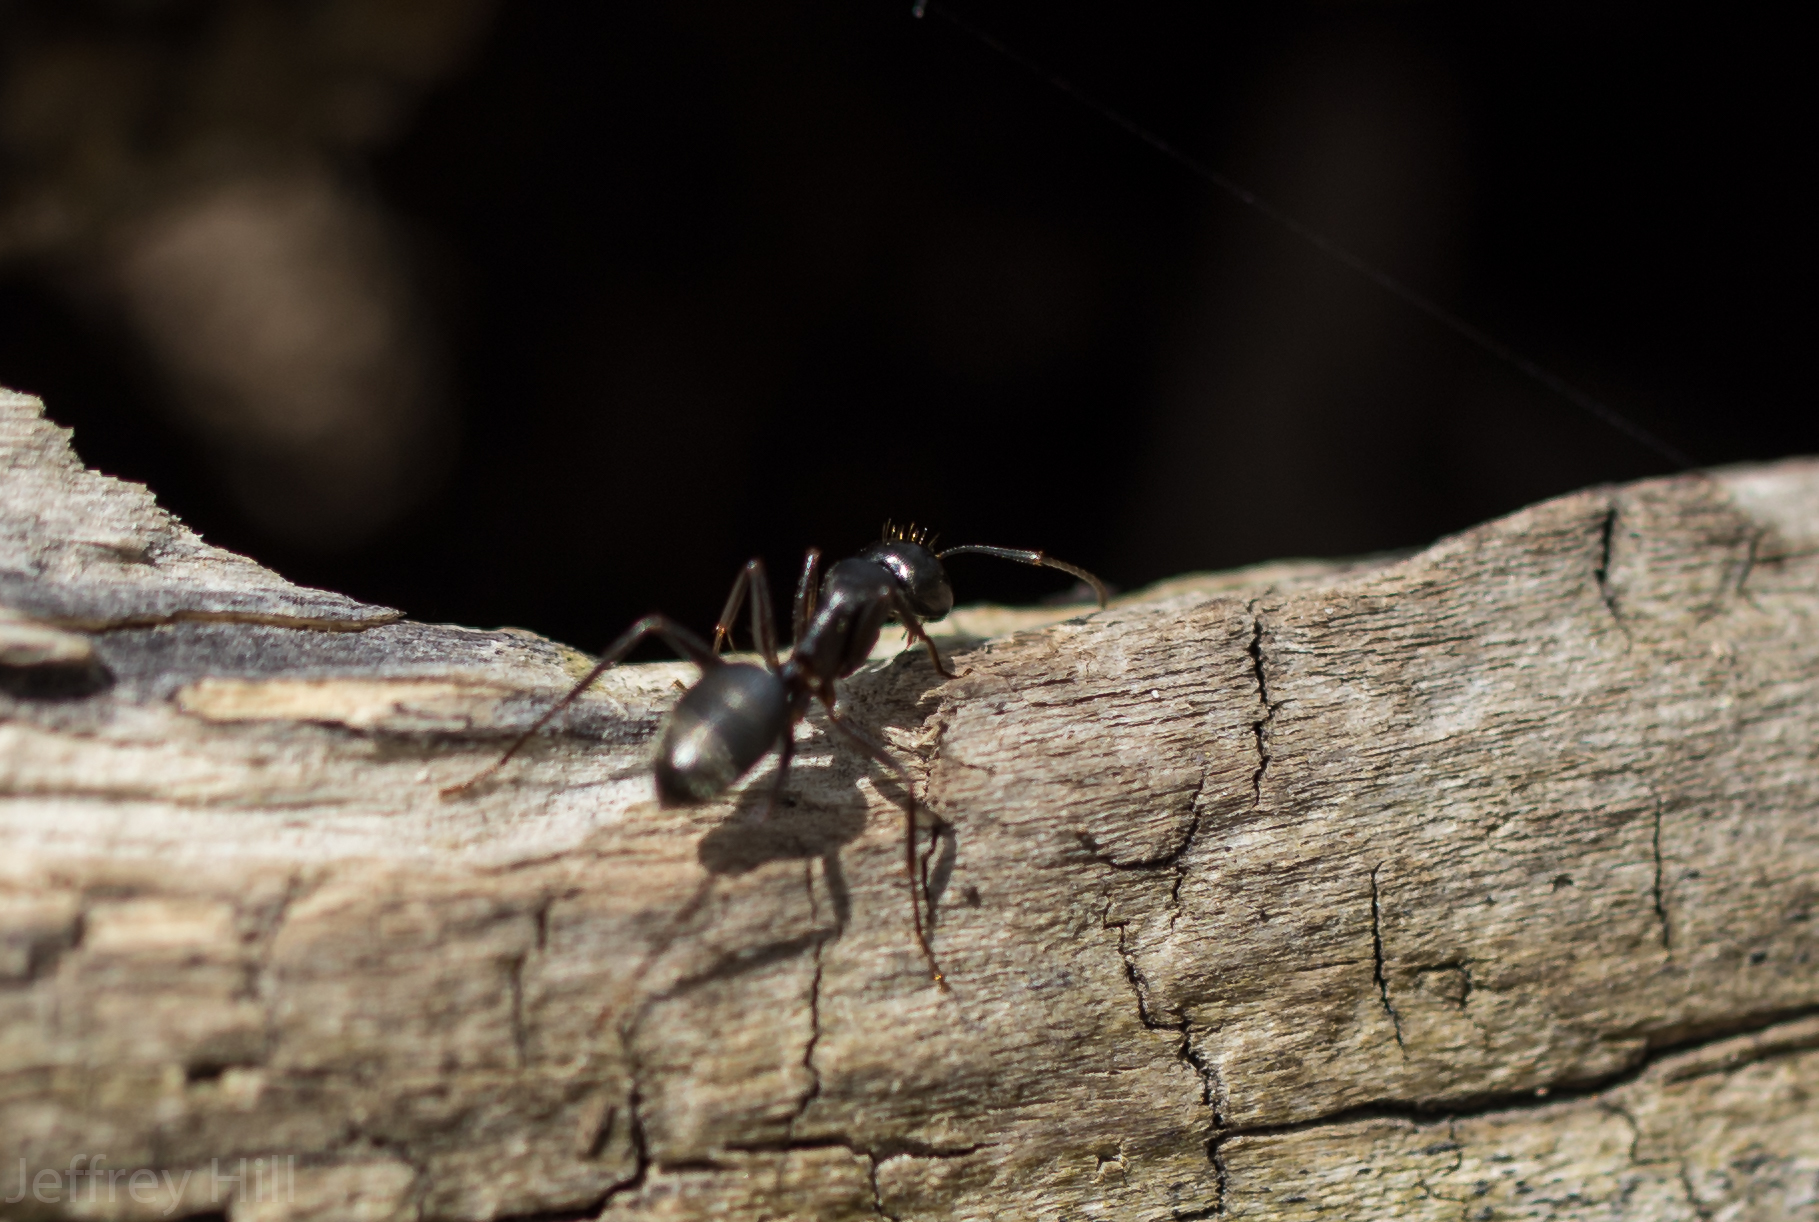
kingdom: Animalia
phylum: Arthropoda
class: Insecta
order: Hymenoptera
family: Formicidae
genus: Camponotus
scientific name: Camponotus pennsylvanicus
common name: Black carpenter ant
